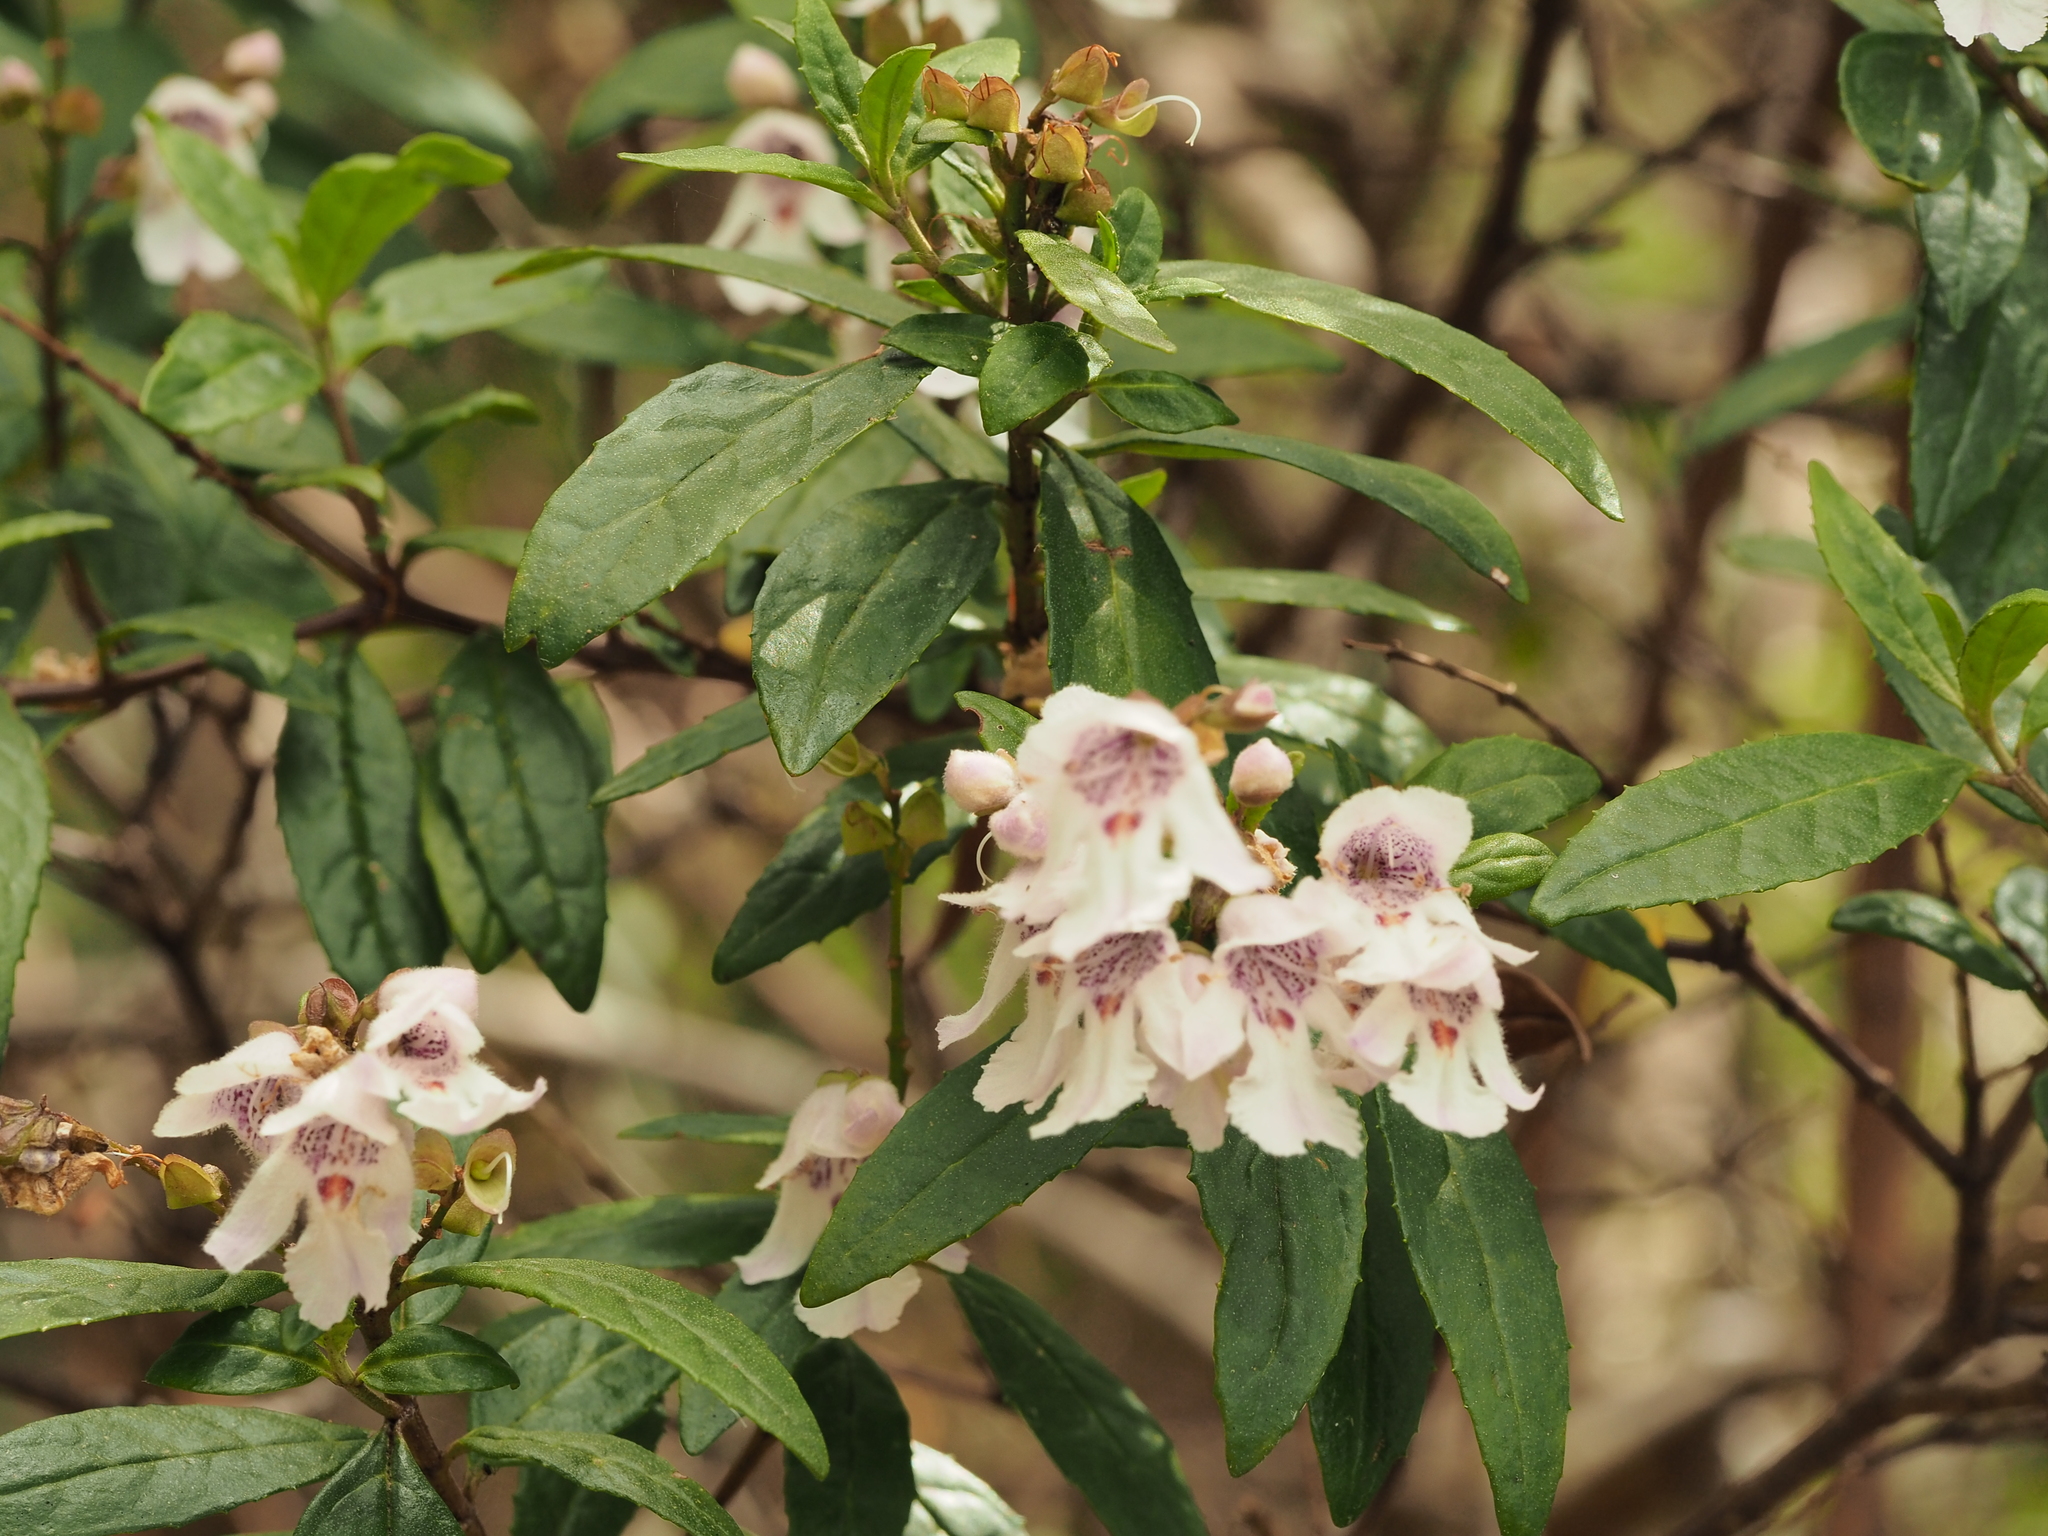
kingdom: Plantae
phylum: Tracheophyta
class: Magnoliopsida
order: Lamiales
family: Lamiaceae
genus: Prostanthera
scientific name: Prostanthera lasianthos
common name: Mountain-lilac
